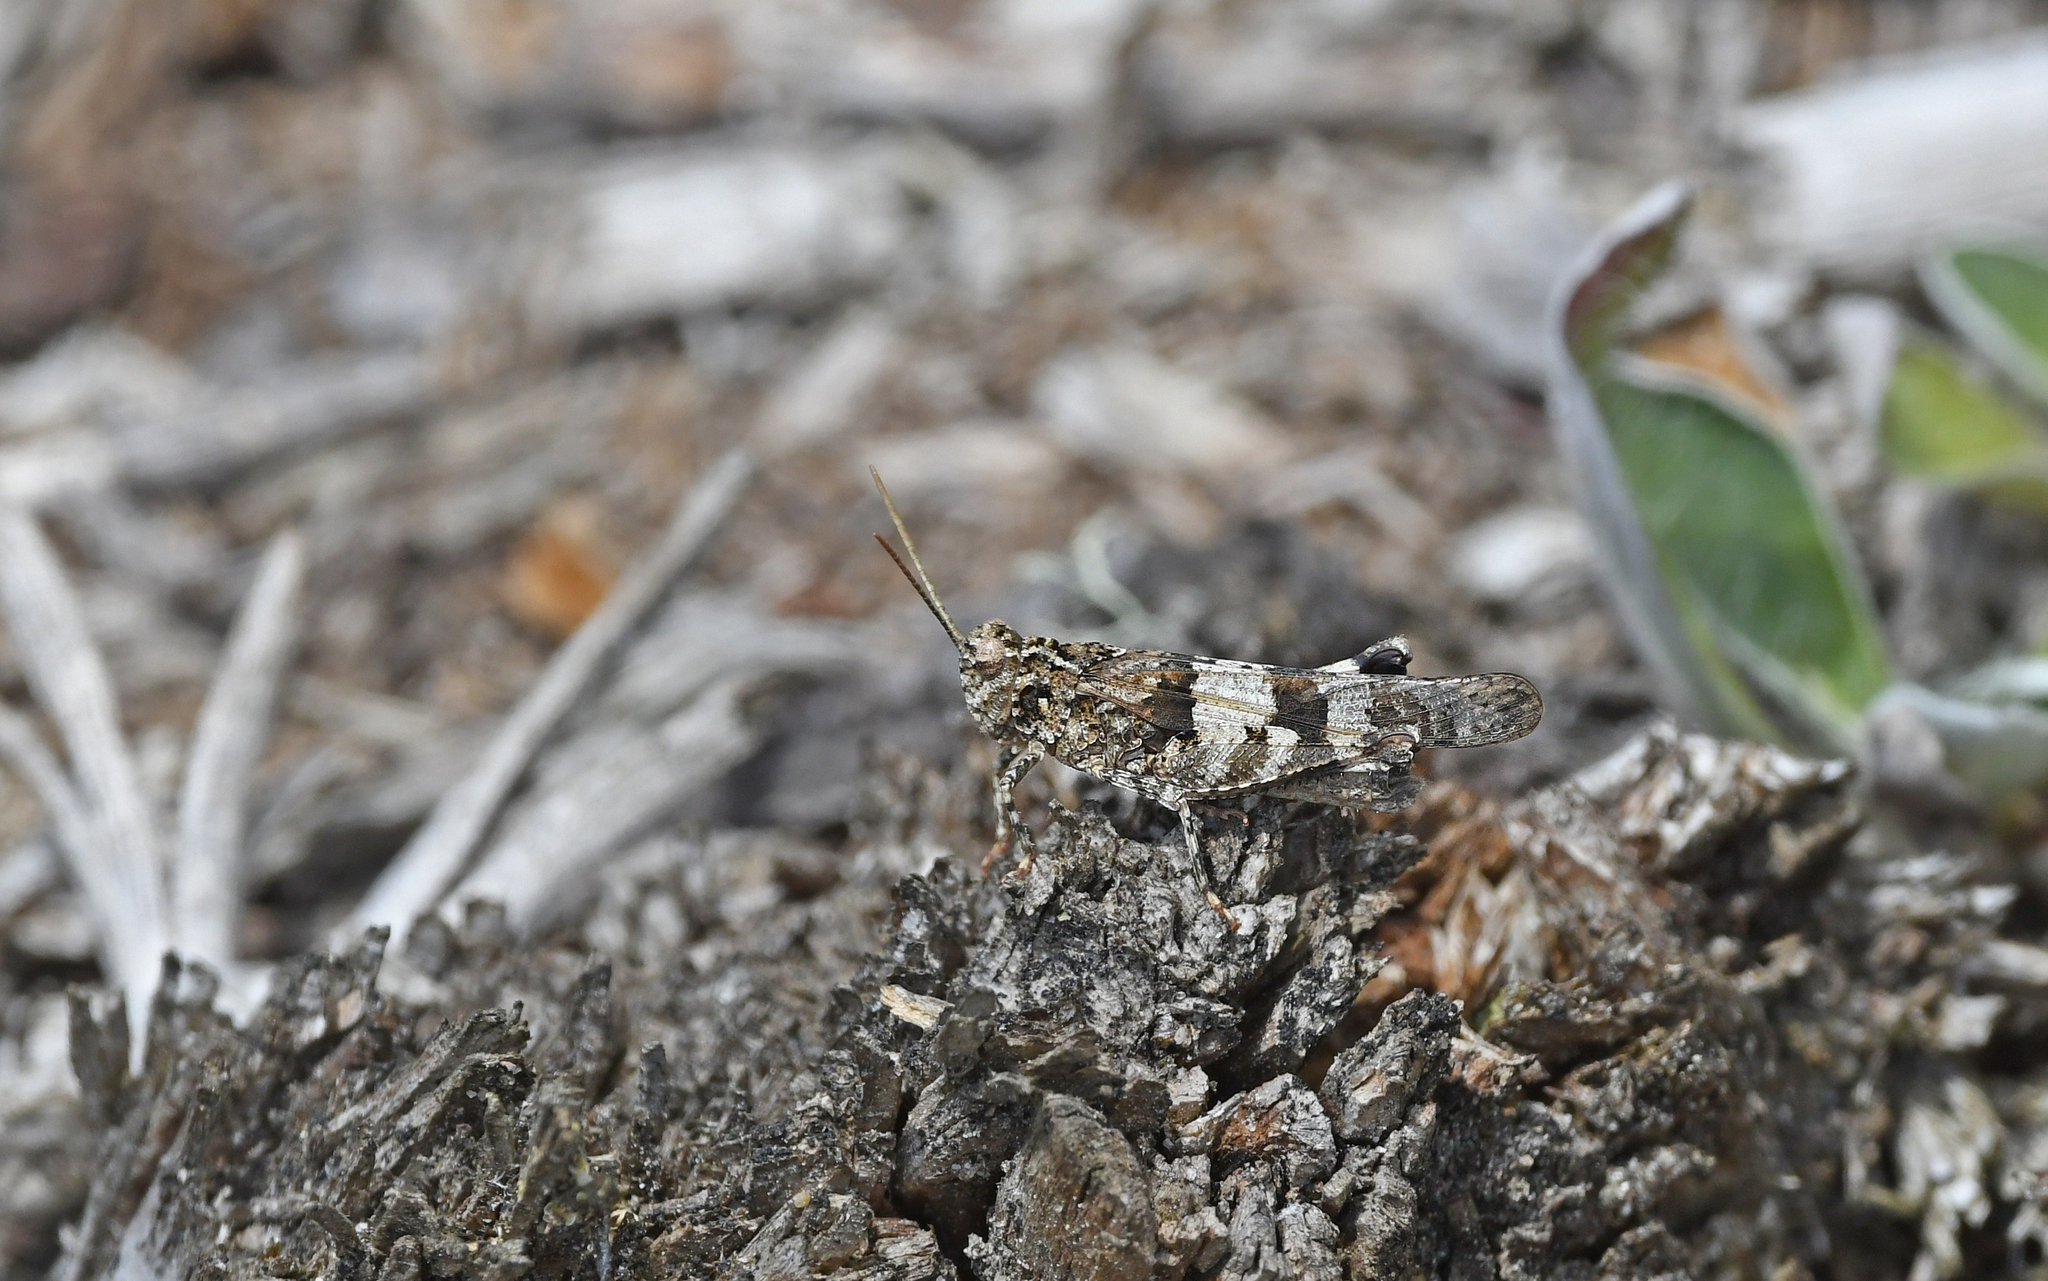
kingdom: Animalia
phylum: Arthropoda
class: Insecta
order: Orthoptera
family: Acrididae
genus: Oedipoda
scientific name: Oedipoda caerulescens
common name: Blue-winged grasshopper
